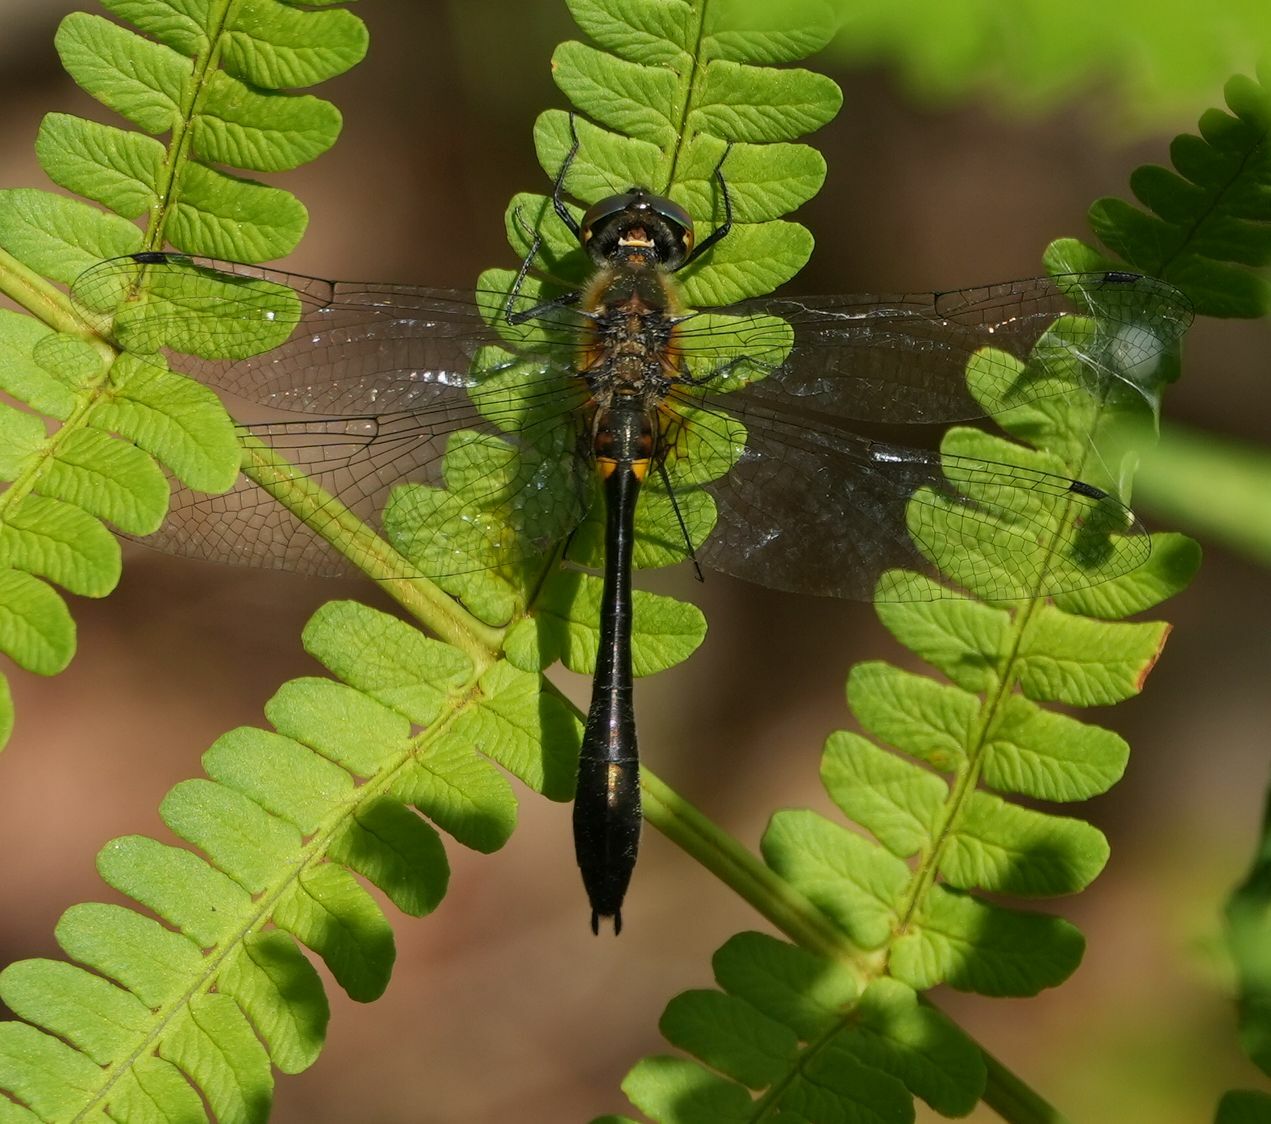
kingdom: Animalia
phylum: Arthropoda
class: Insecta
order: Odonata
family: Corduliidae
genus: Dorocordulia
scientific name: Dorocordulia libera
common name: Racket-tailed emerald
